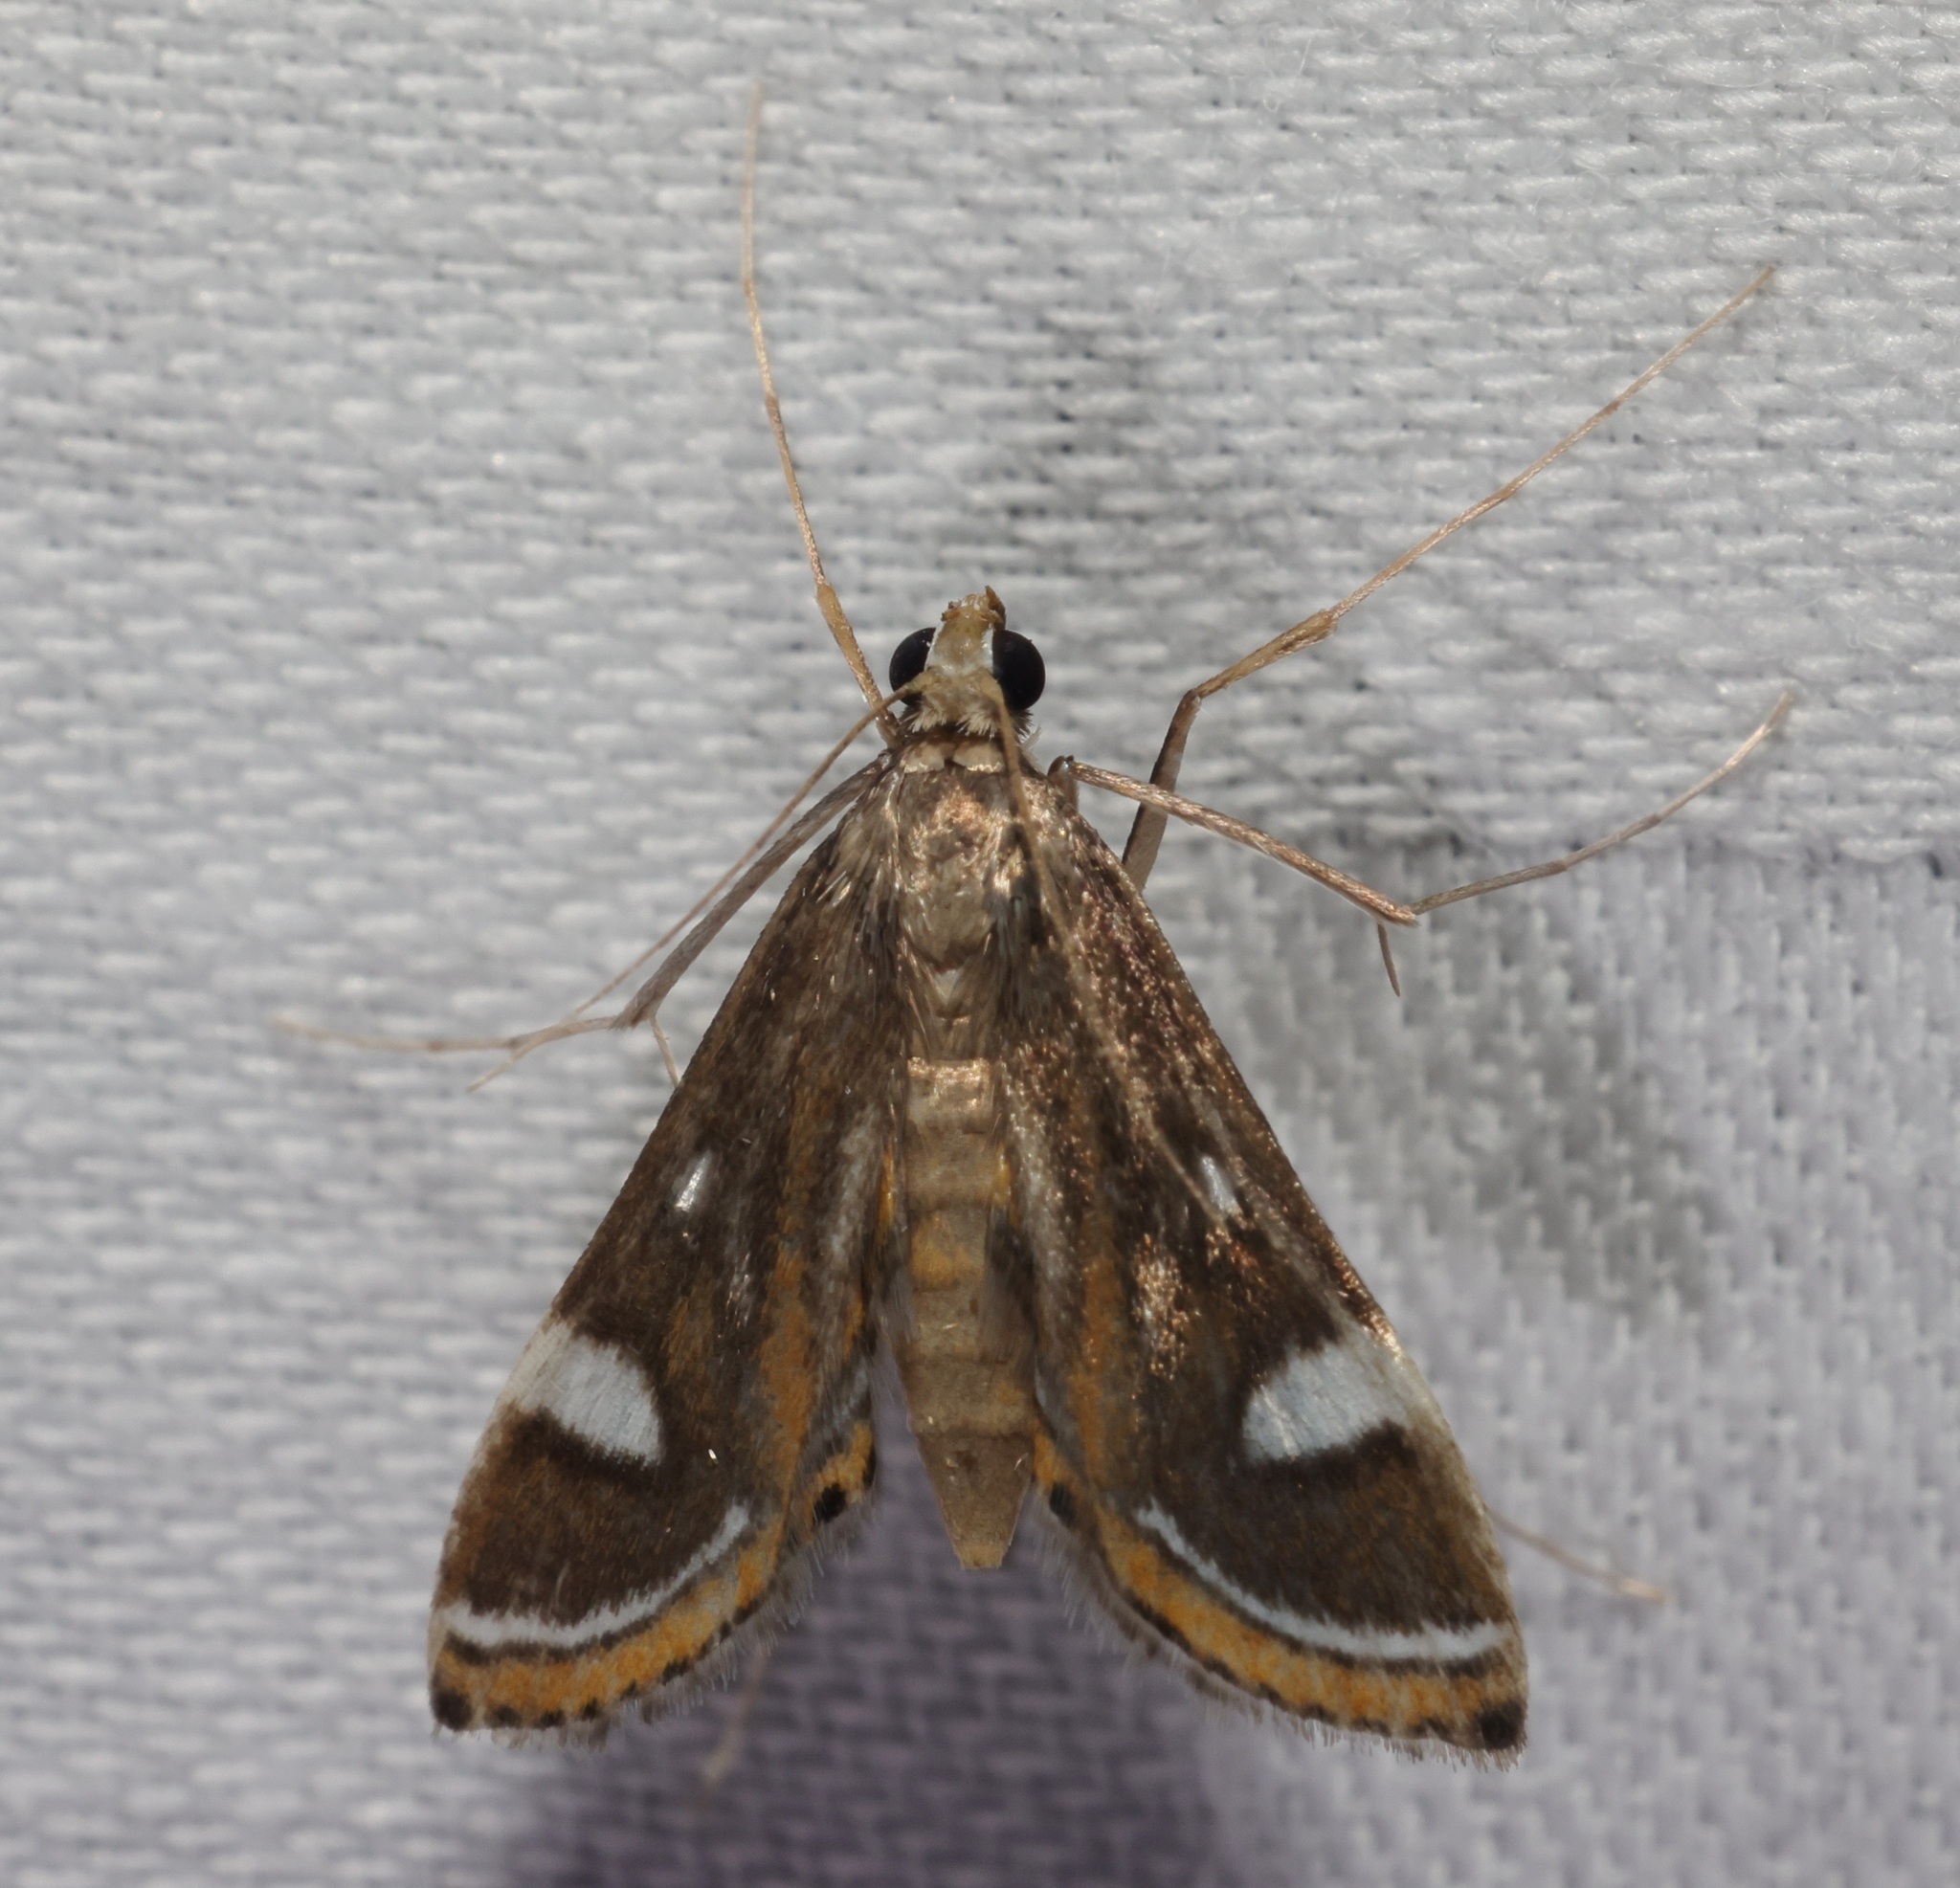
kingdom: Animalia
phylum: Arthropoda
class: Insecta
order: Lepidoptera
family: Crambidae
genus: Strepsinoma
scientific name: Strepsinoma croesusalis
